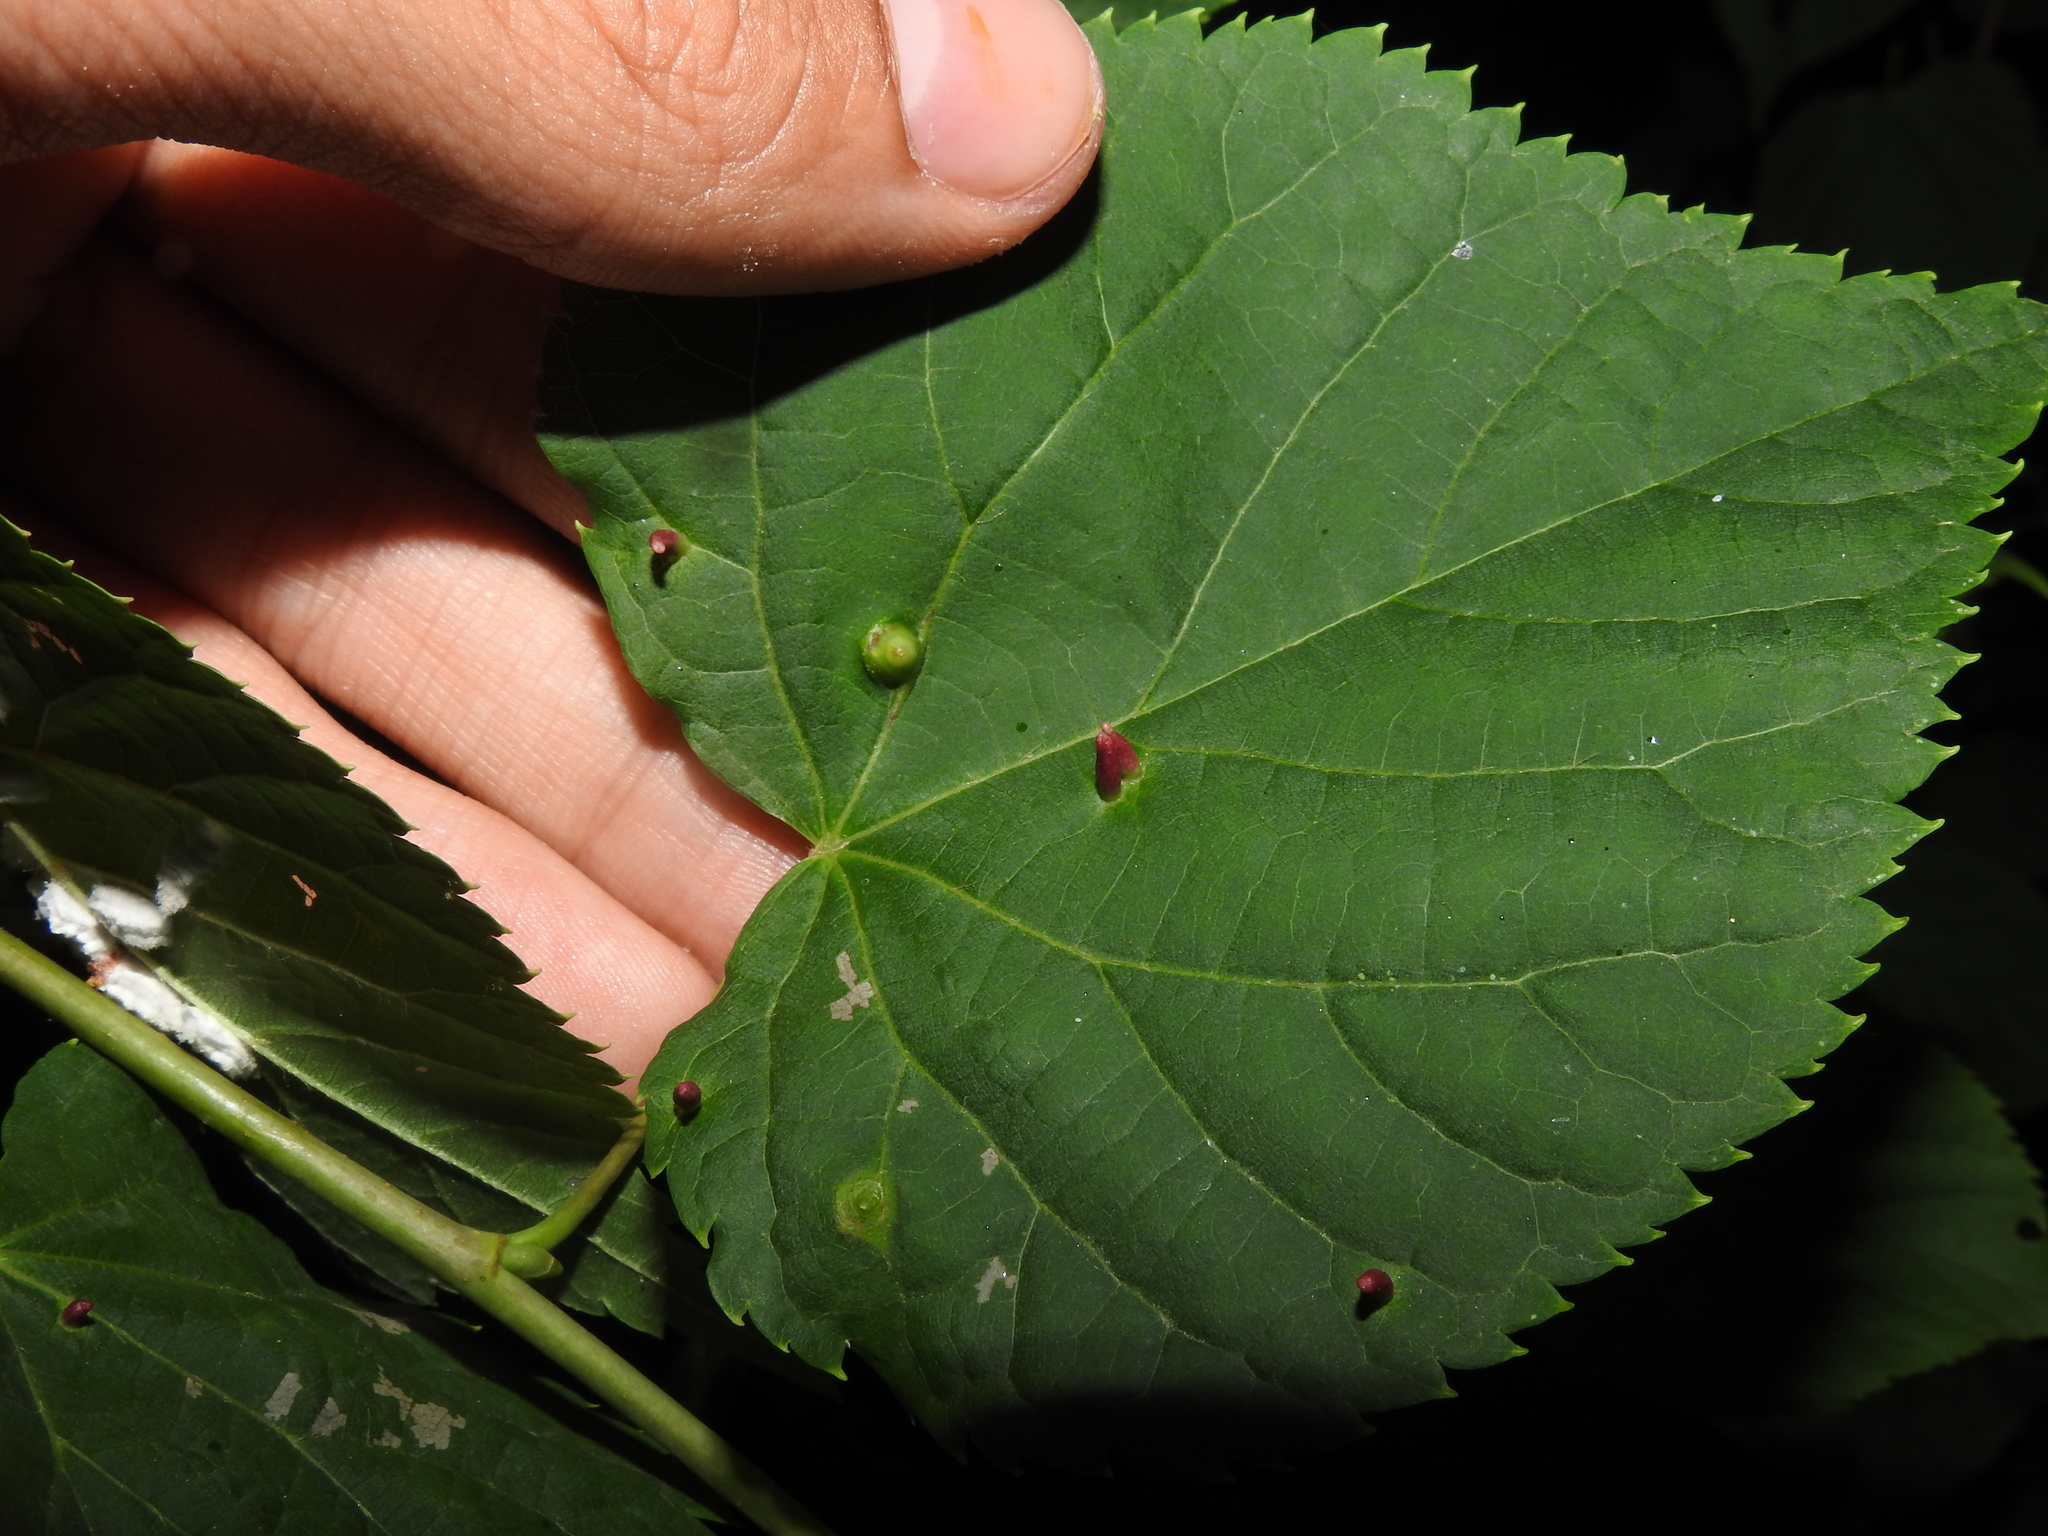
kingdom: Animalia
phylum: Arthropoda
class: Insecta
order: Diptera
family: Cecidomyiidae
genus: Didymomyia
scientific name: Didymomyia tiliacea
